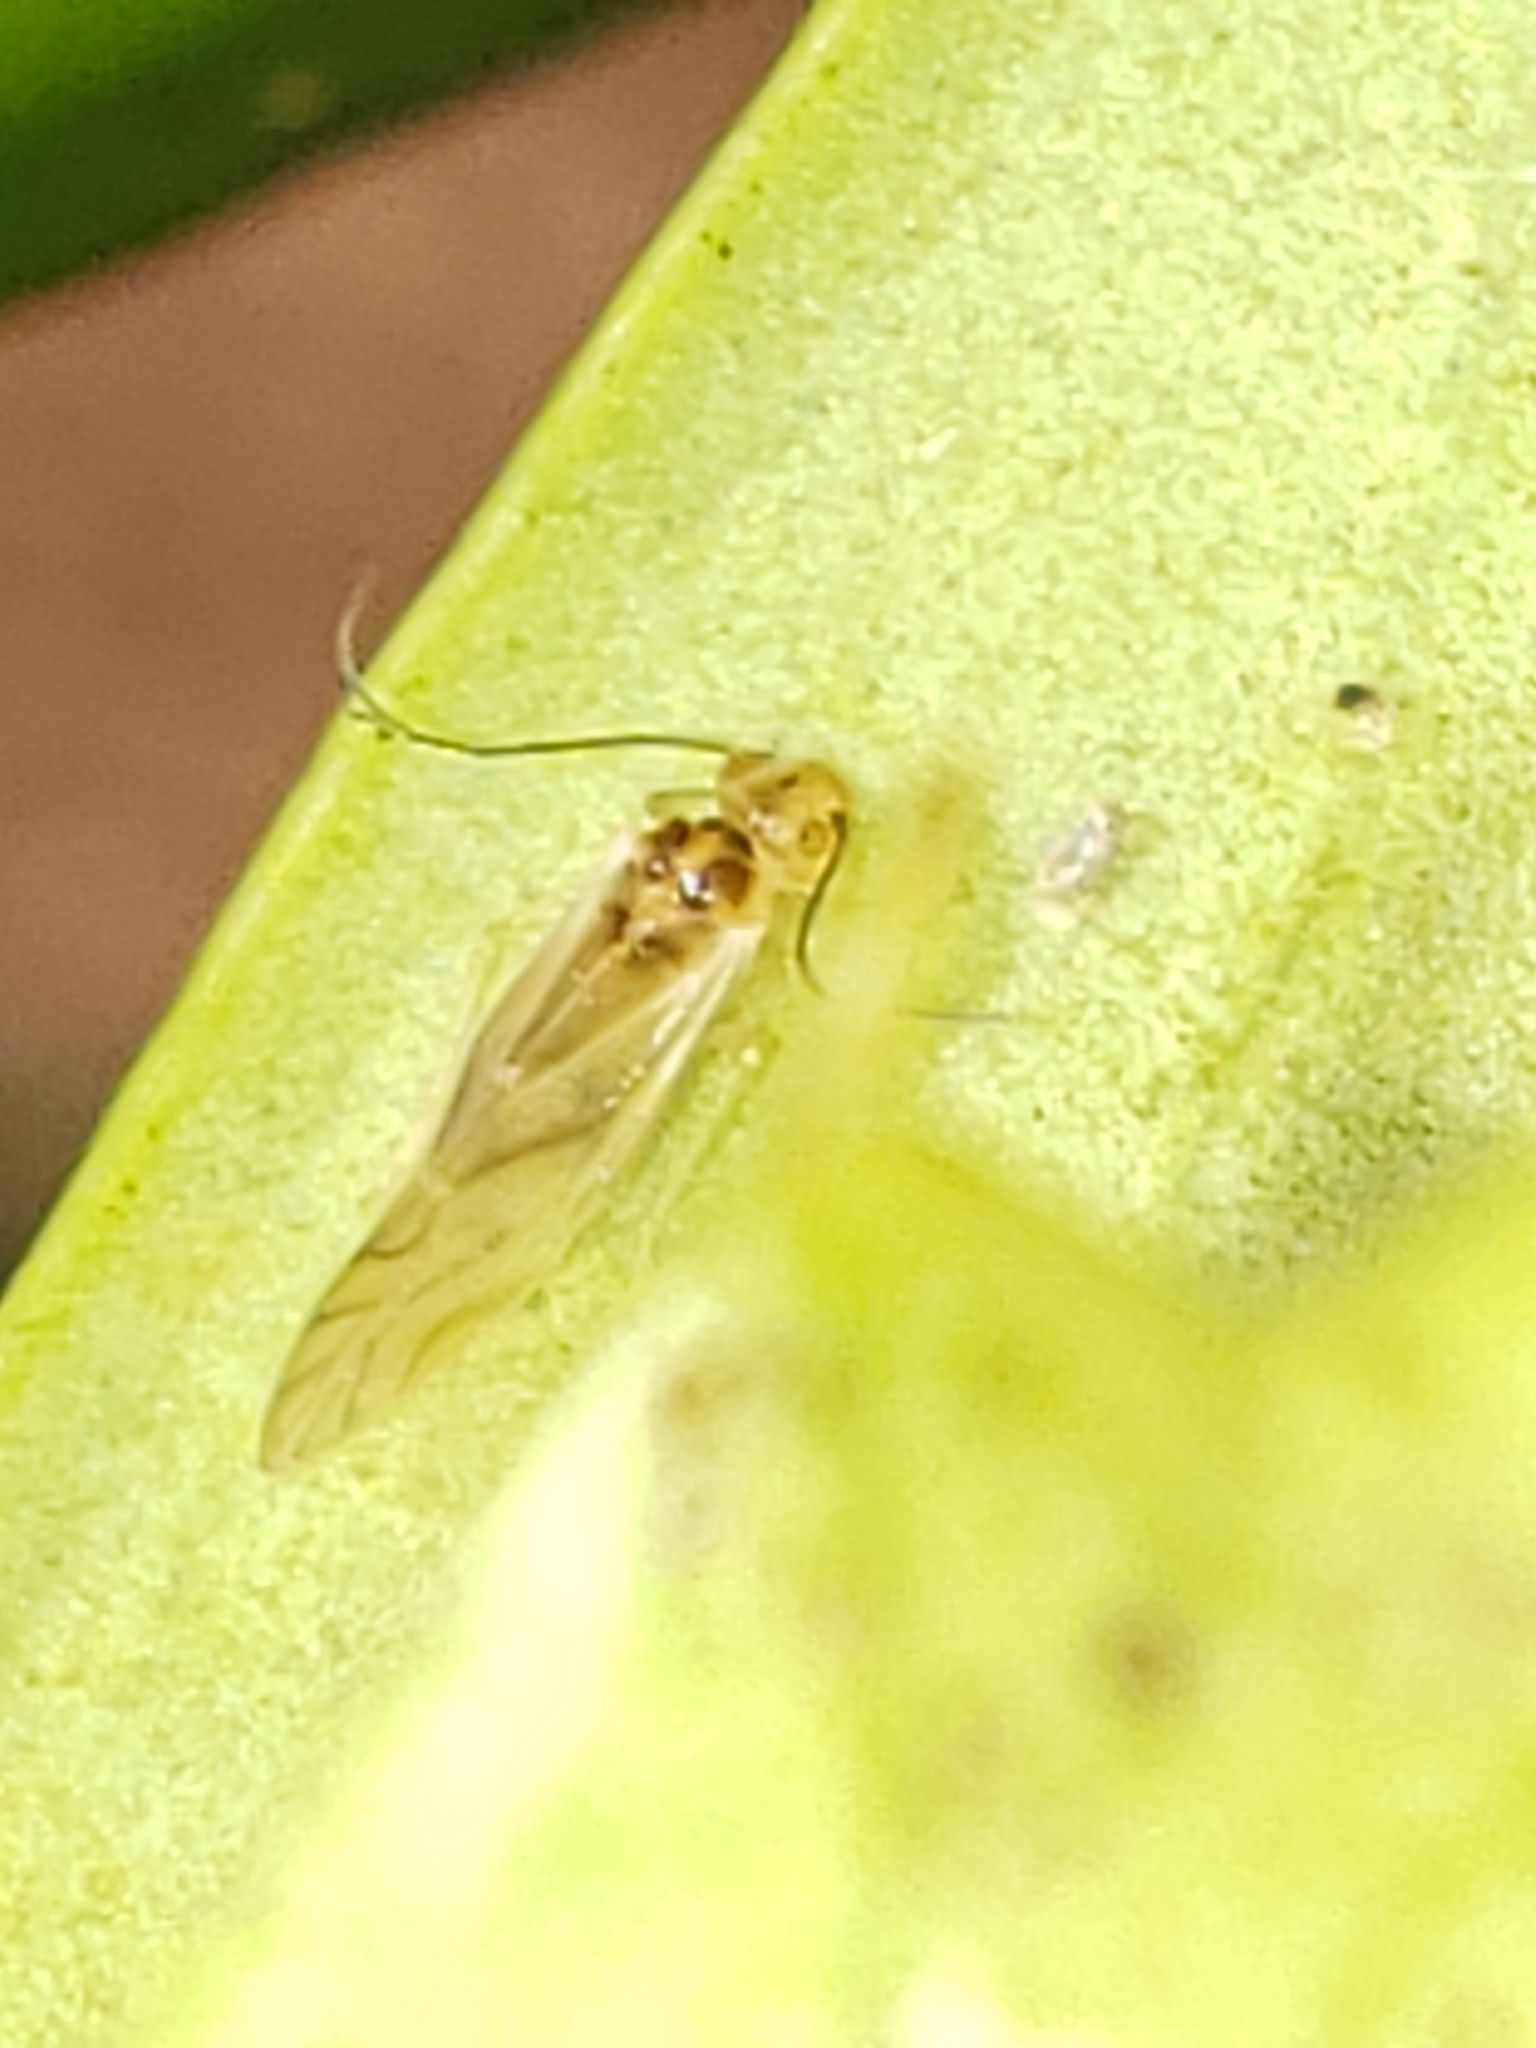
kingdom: Animalia
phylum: Arthropoda
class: Insecta
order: Psocodea
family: Caeciliusidae
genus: Valenzuela
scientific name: Valenzuela flavidus
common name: Yellow barklouse
